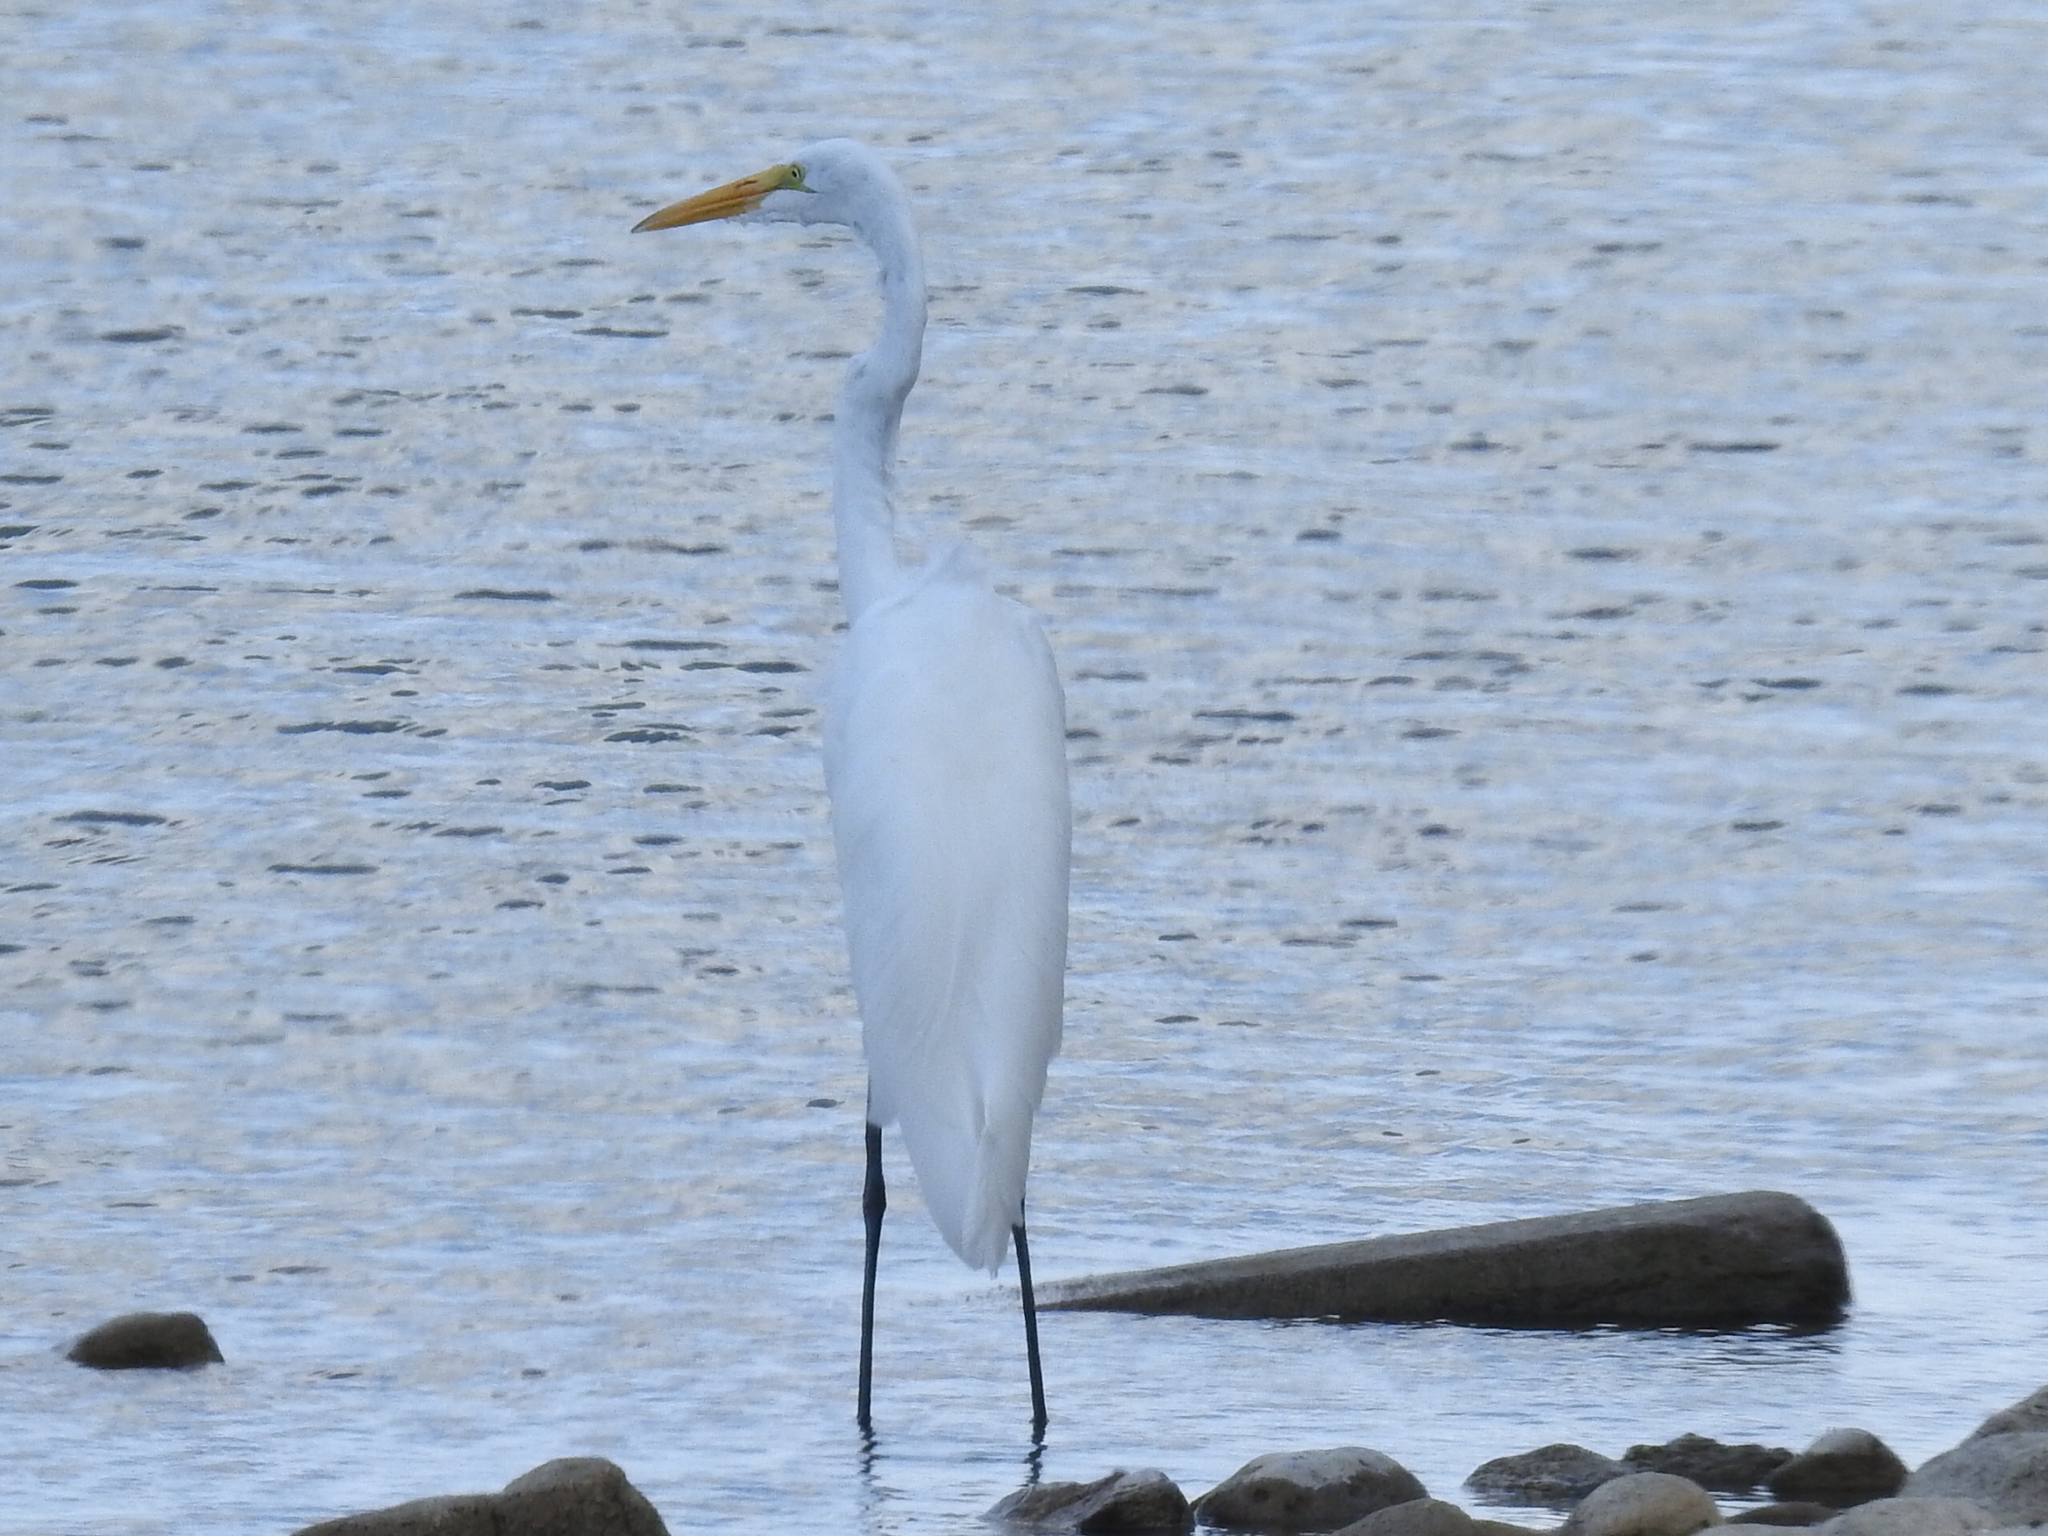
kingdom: Animalia
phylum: Chordata
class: Aves
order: Pelecaniformes
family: Ardeidae
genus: Ardea
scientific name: Ardea alba
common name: Great egret
